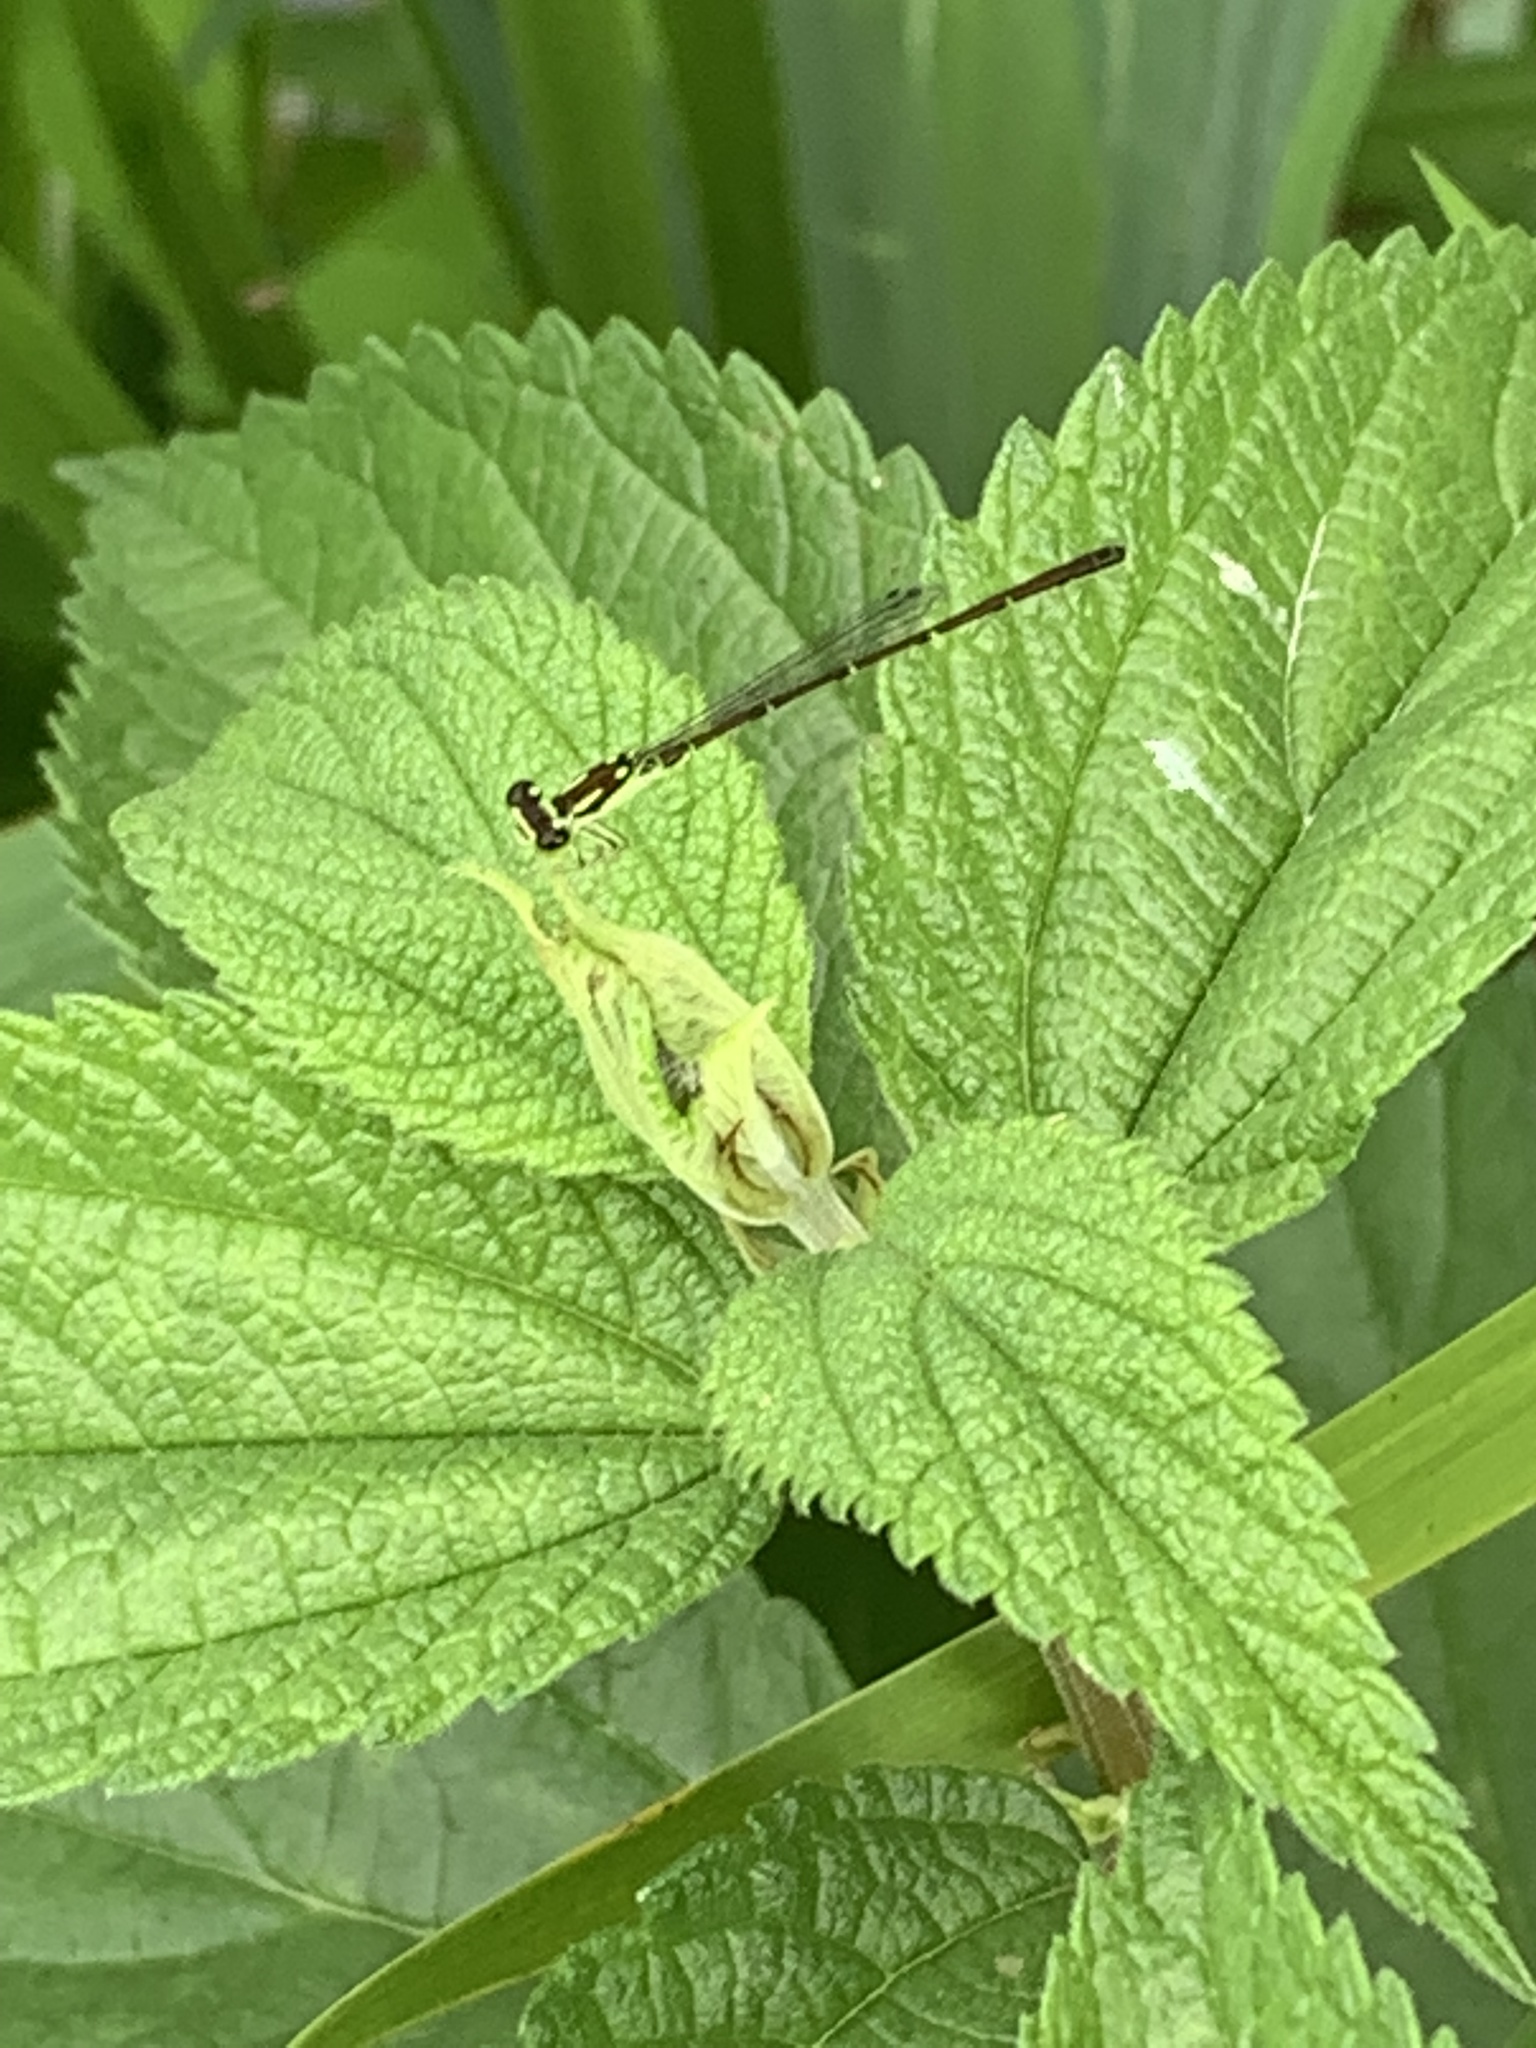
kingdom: Animalia
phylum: Arthropoda
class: Insecta
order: Odonata
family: Coenagrionidae
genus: Ischnura
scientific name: Ischnura posita
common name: Fragile forktail
